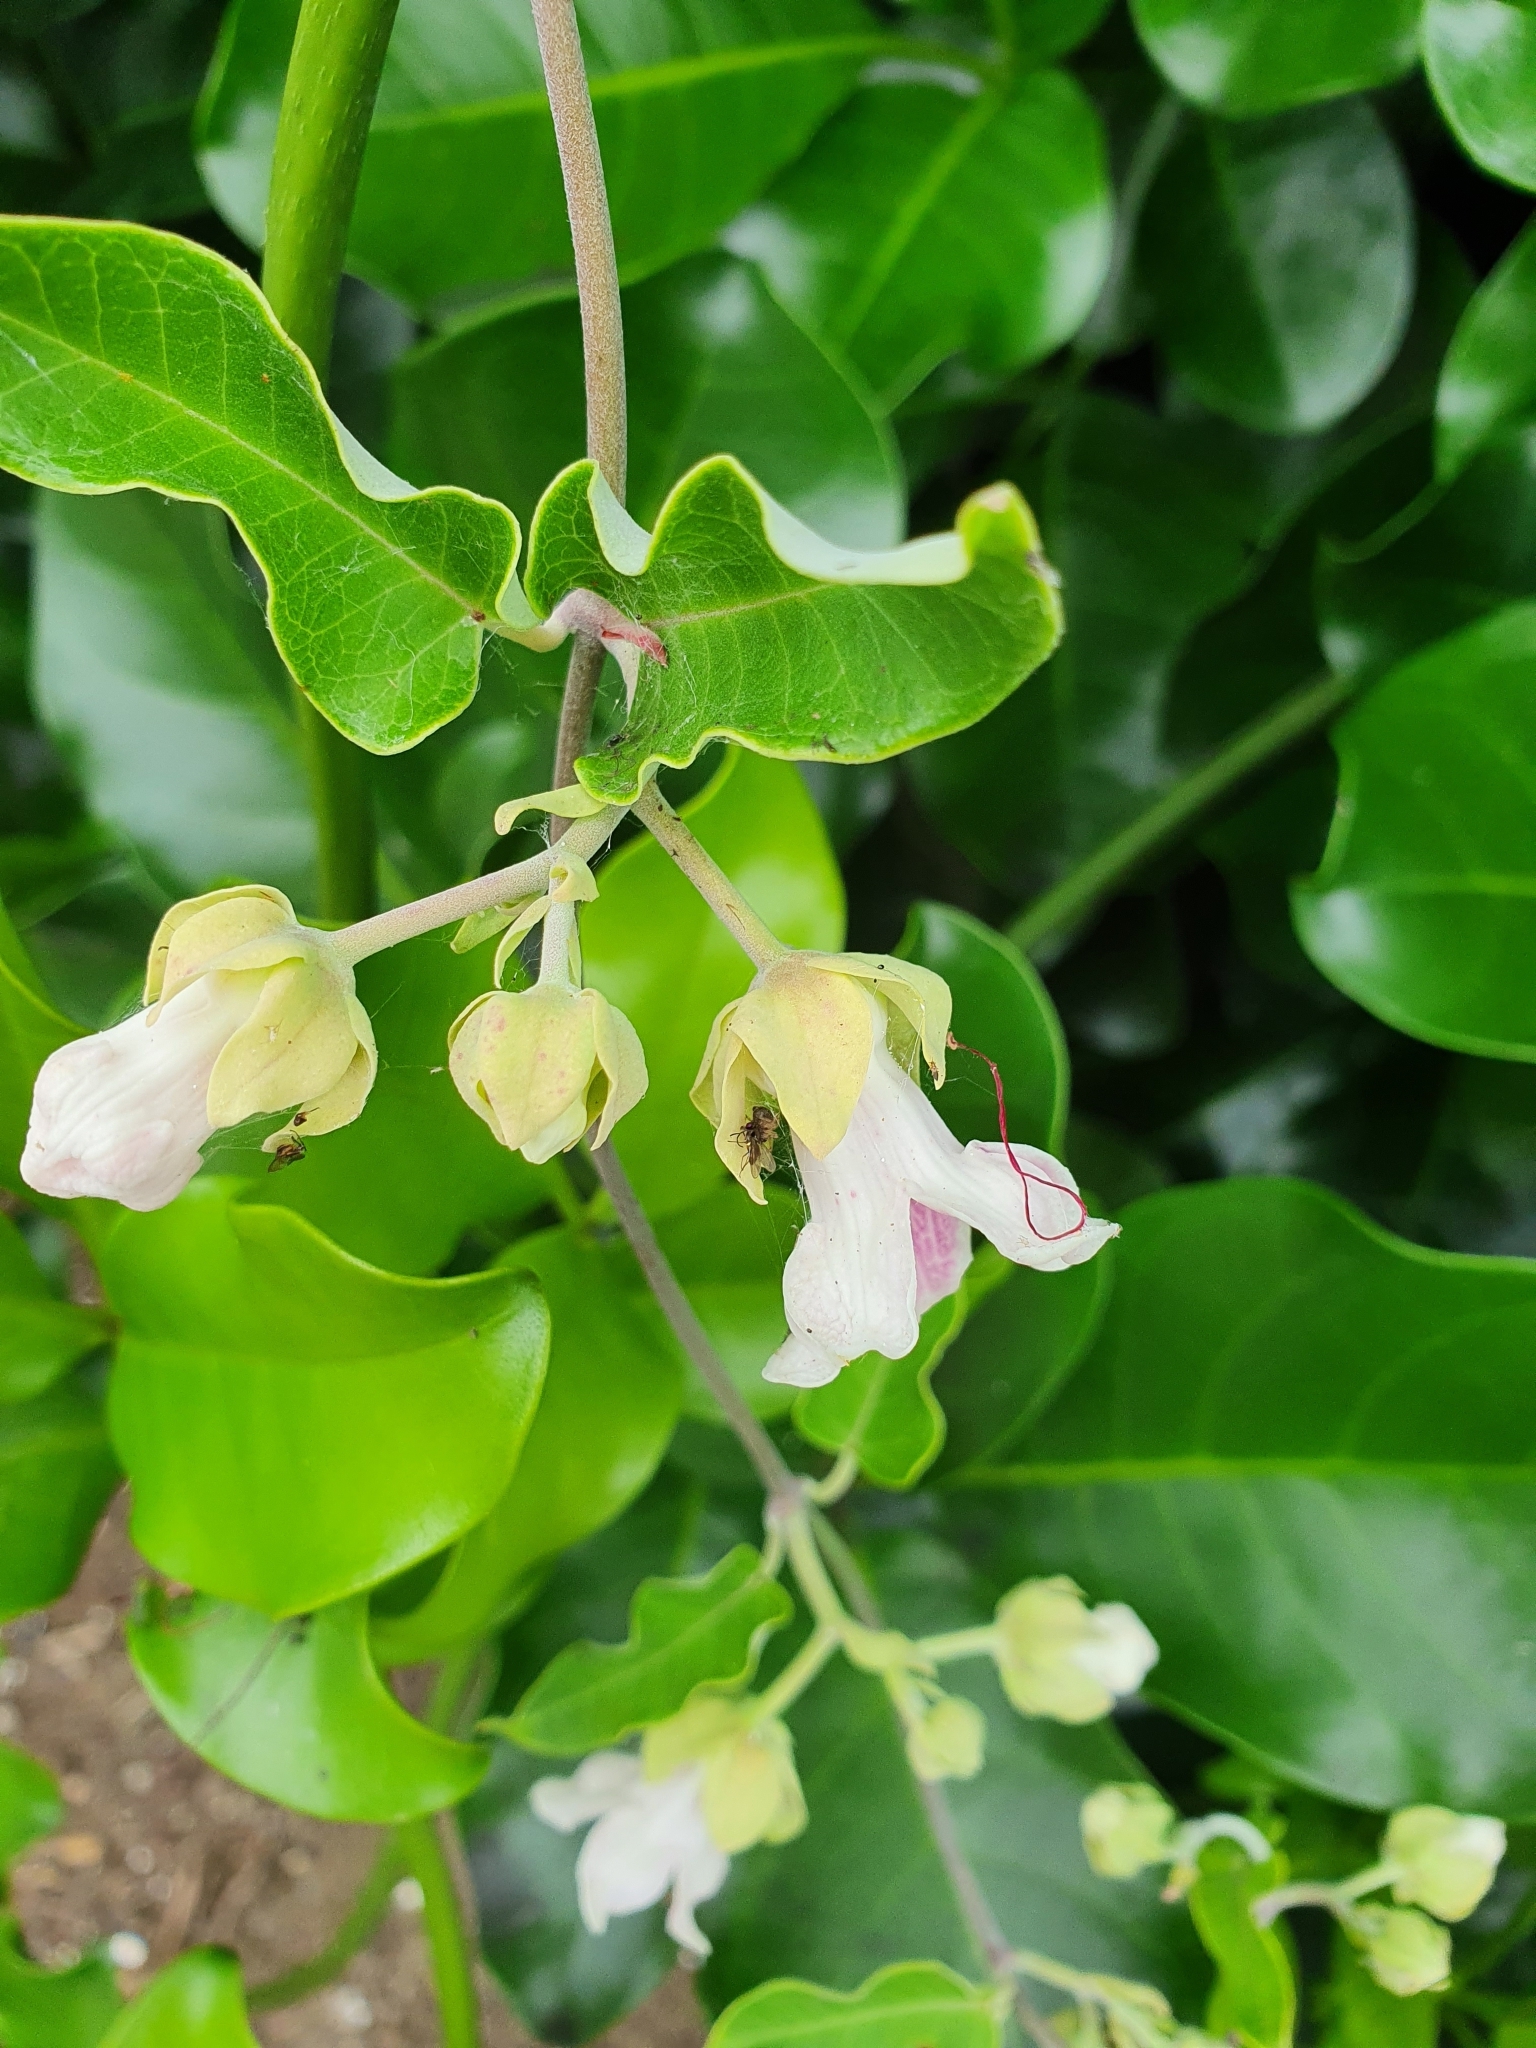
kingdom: Plantae
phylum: Tracheophyta
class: Magnoliopsida
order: Gentianales
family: Apocynaceae
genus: Araujia
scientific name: Araujia sericifera
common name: White bladderflower
